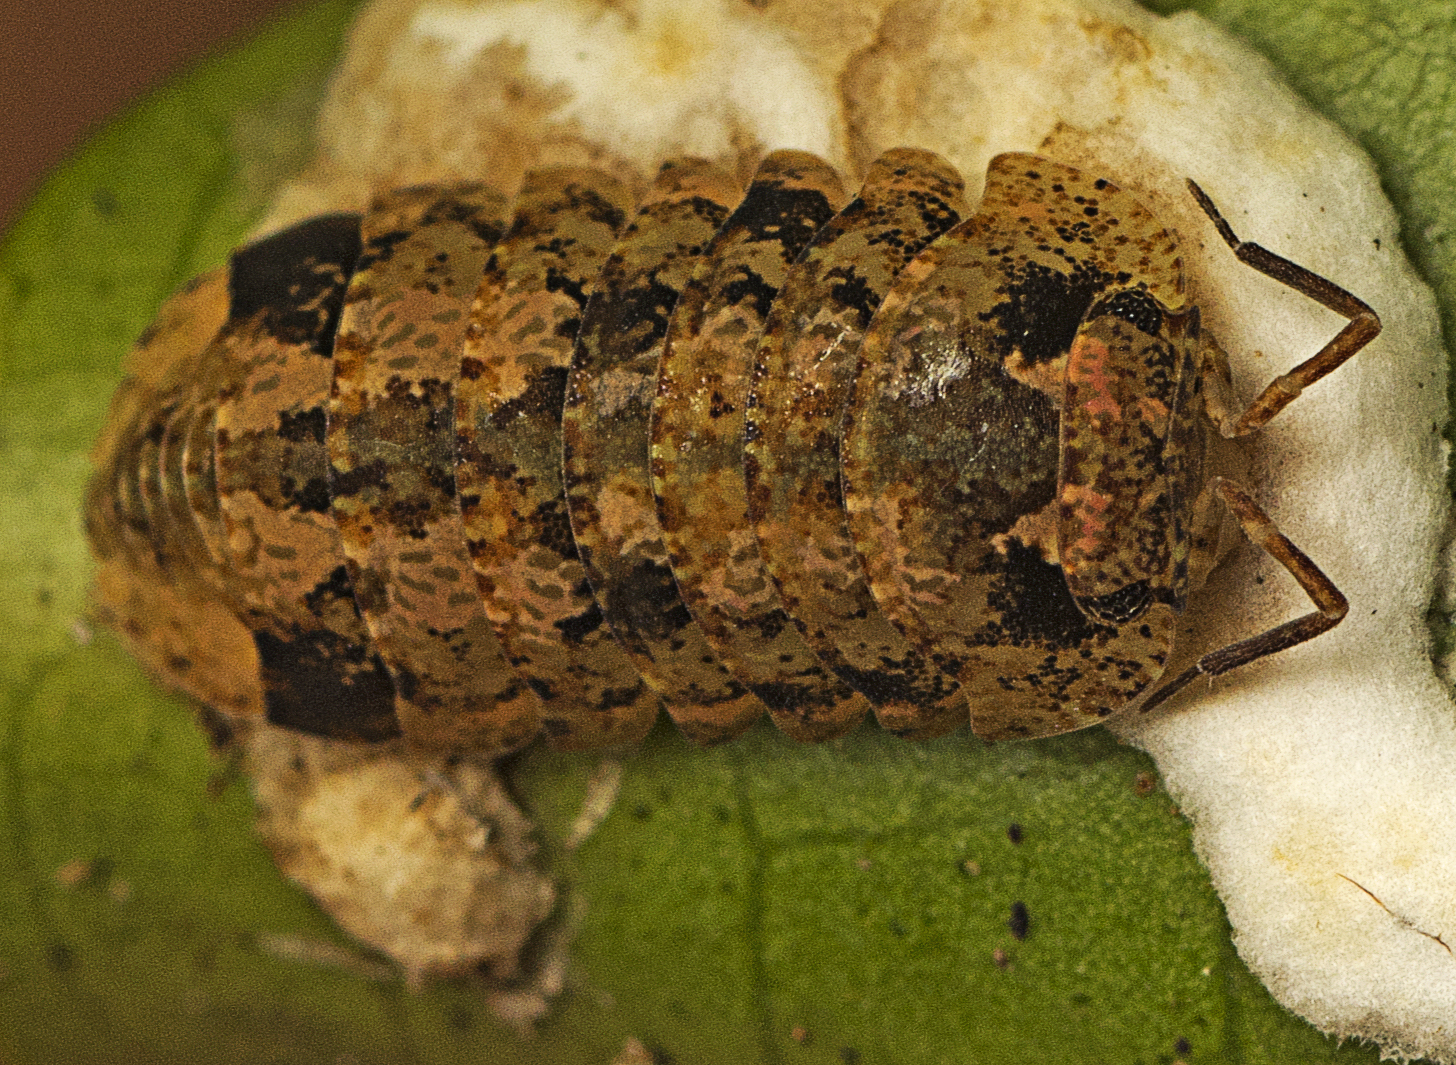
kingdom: Animalia
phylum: Arthropoda
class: Malacostraca
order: Isopoda
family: Armadillidae
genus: Cubaris
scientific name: Cubaris marmorata
